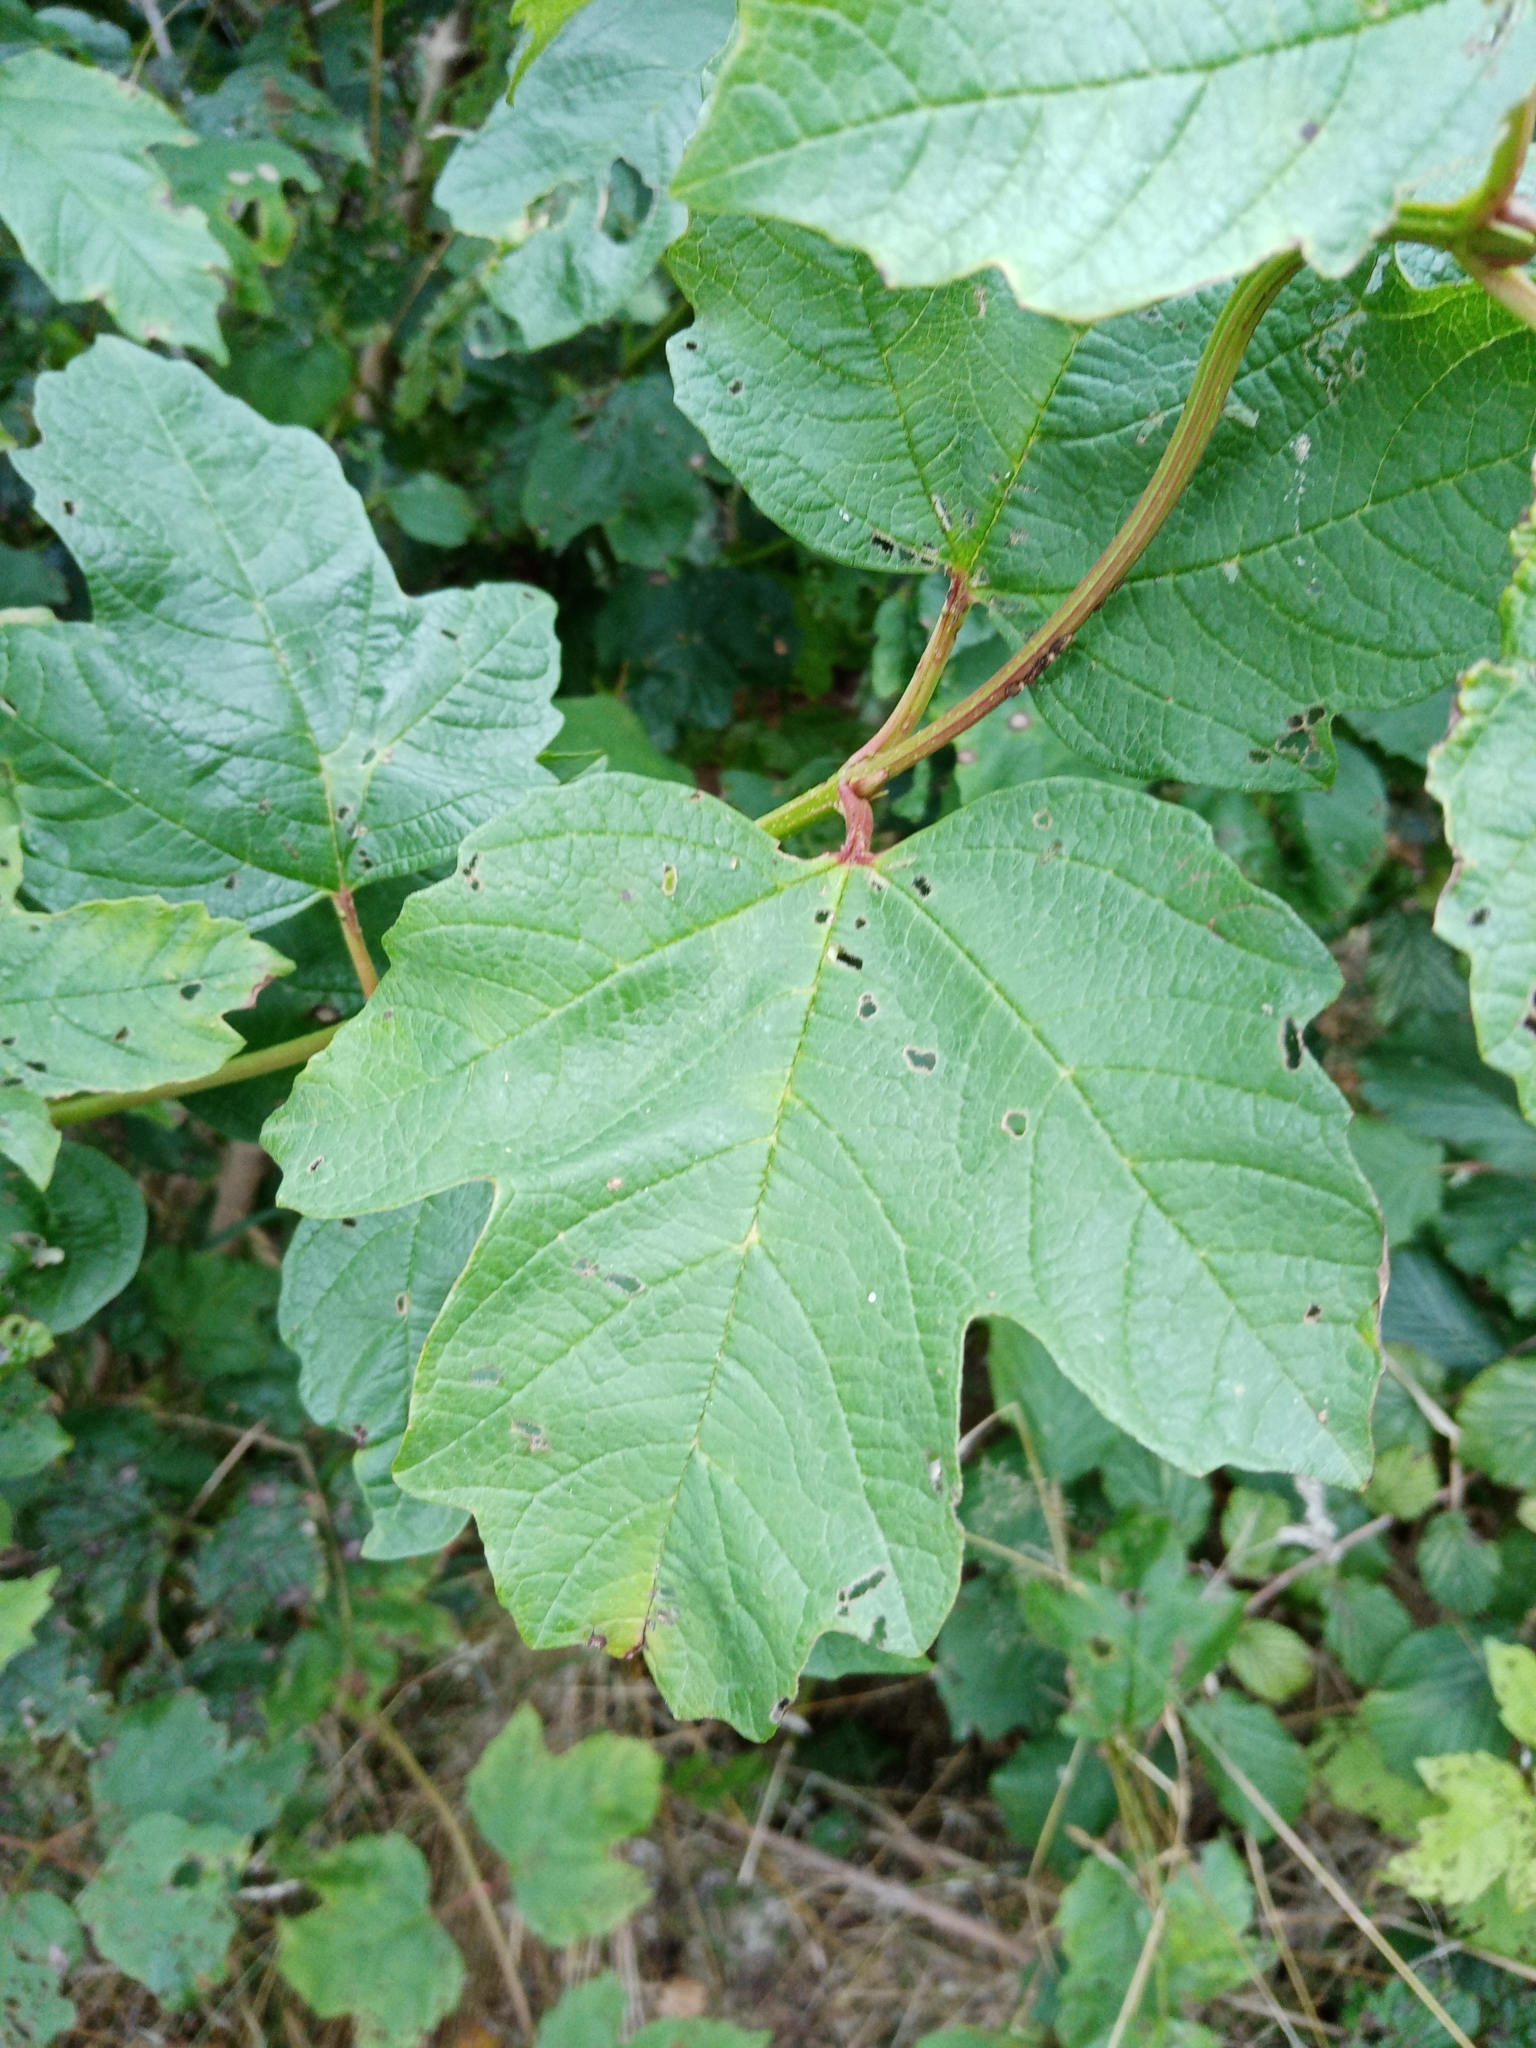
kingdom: Plantae
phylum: Tracheophyta
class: Magnoliopsida
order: Dipsacales
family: Viburnaceae
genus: Viburnum
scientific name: Viburnum opulus
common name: Guelder-rose
